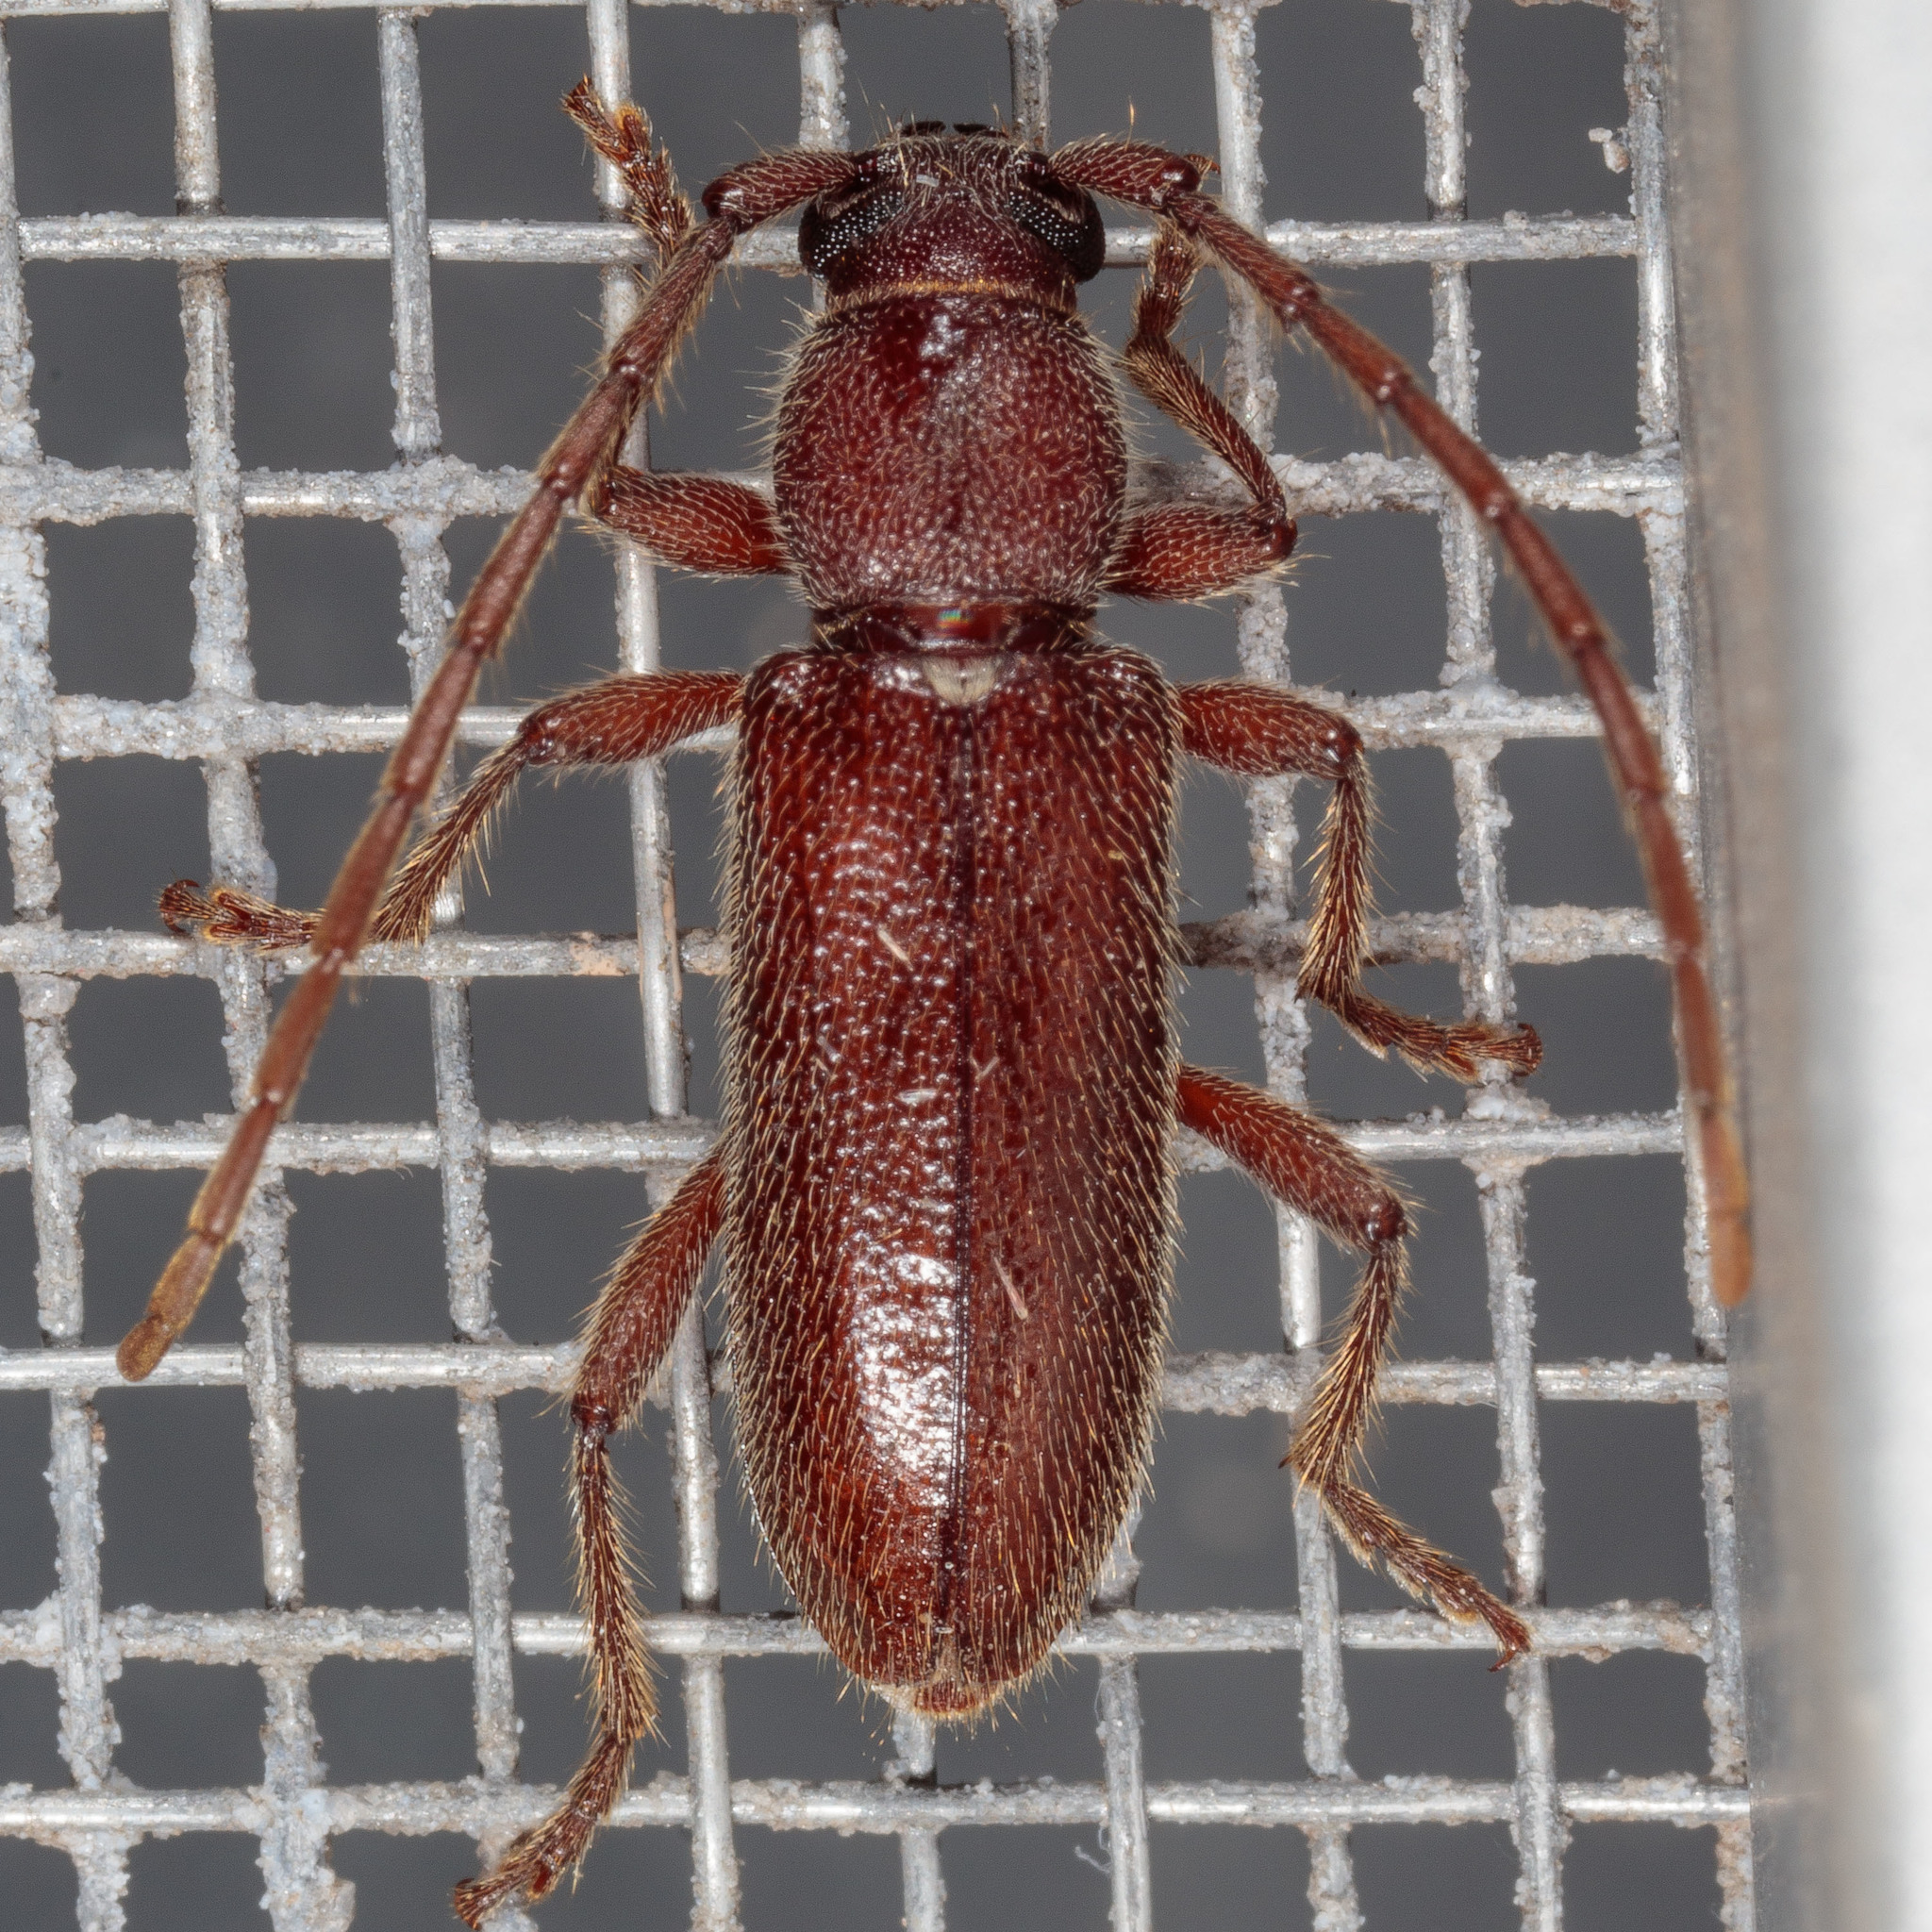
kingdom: Animalia
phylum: Arthropoda
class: Insecta
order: Coleoptera
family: Cerambycidae
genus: Anelaphus
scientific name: Anelaphus moestus
